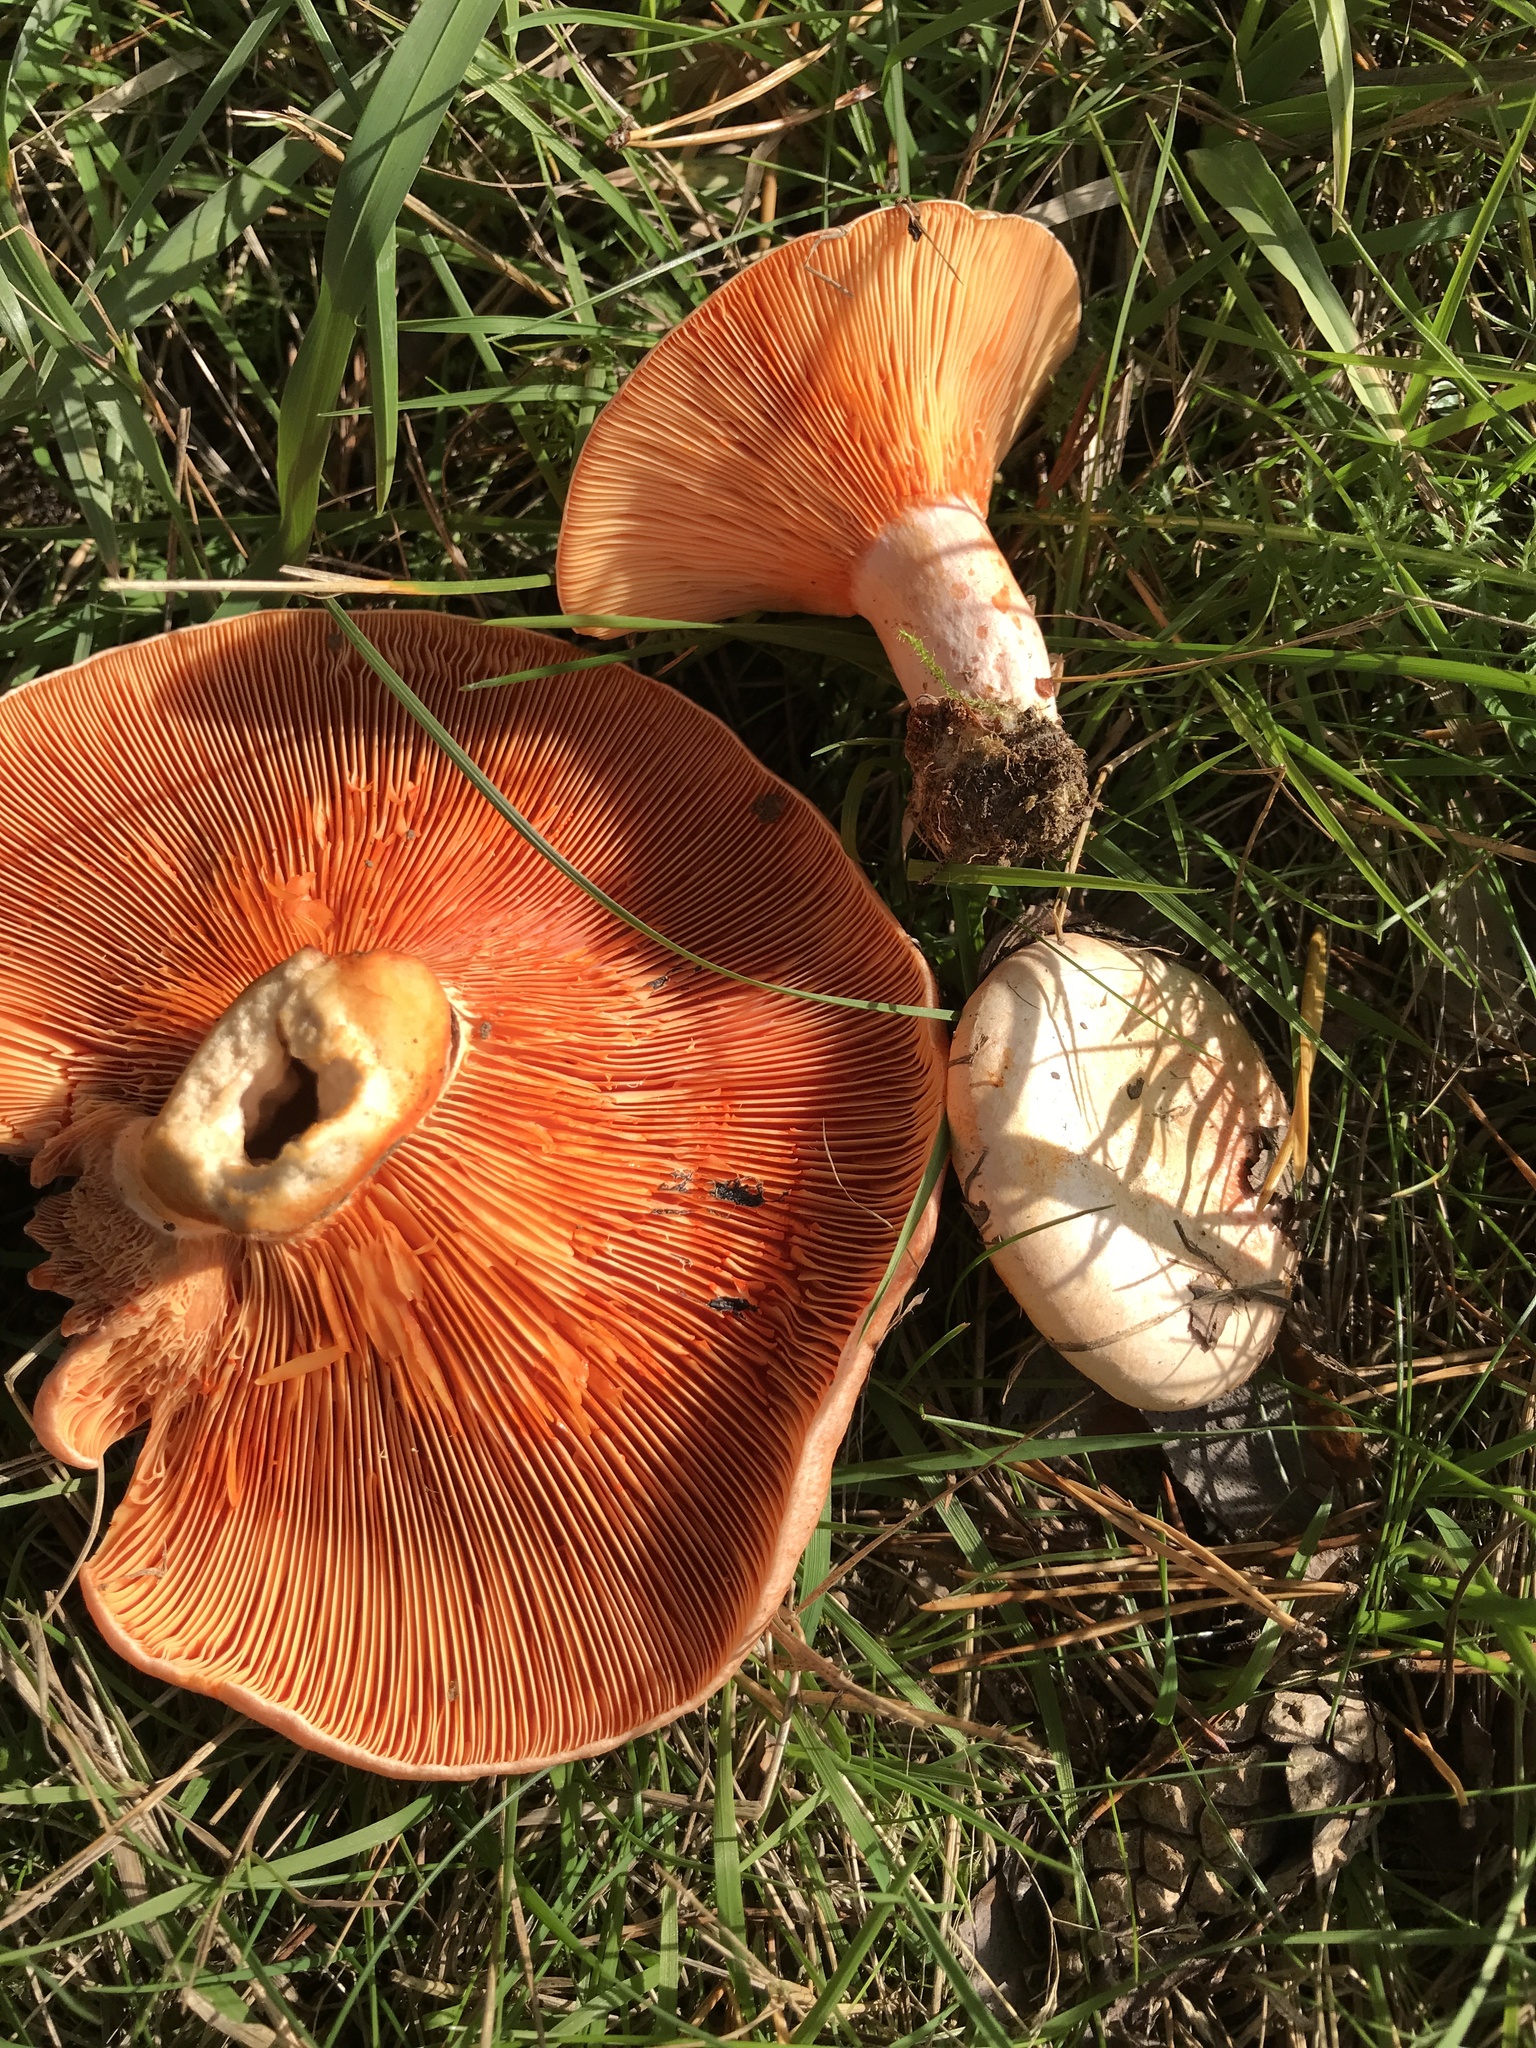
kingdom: Fungi
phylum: Basidiomycota
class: Agaricomycetes
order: Russulales
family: Russulaceae
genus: Lactarius
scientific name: Lactarius deliciosus
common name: Saffron milk-cap
